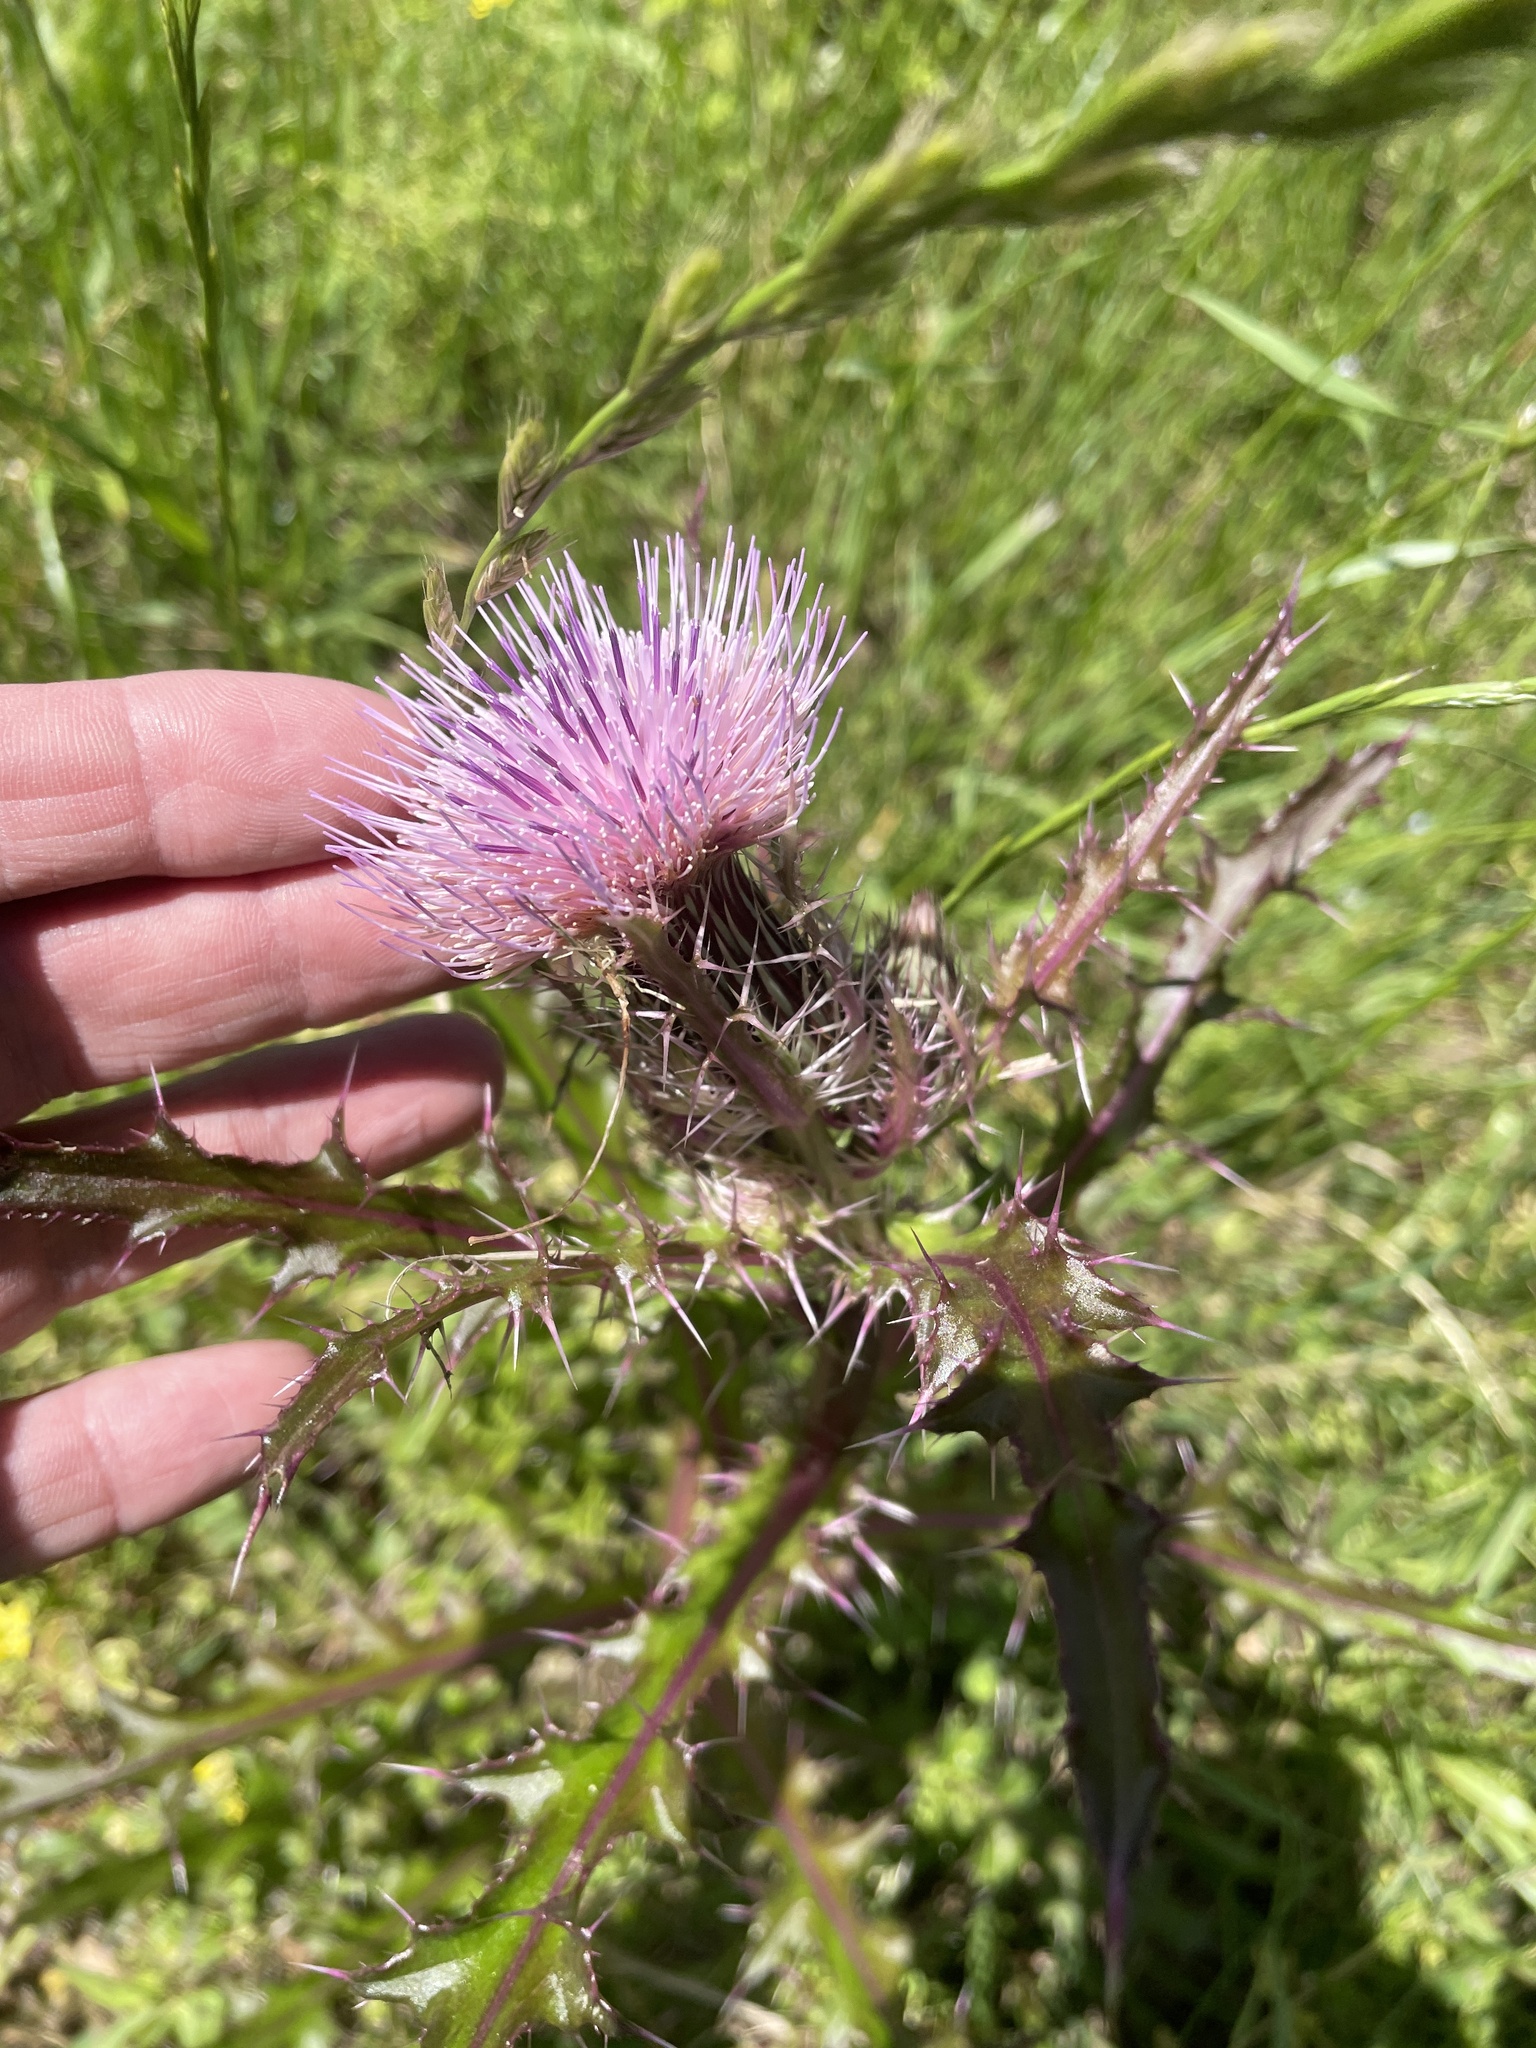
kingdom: Plantae
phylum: Tracheophyta
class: Magnoliopsida
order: Asterales
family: Asteraceae
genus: Cirsium
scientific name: Cirsium horridulum
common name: Bristly thistle
